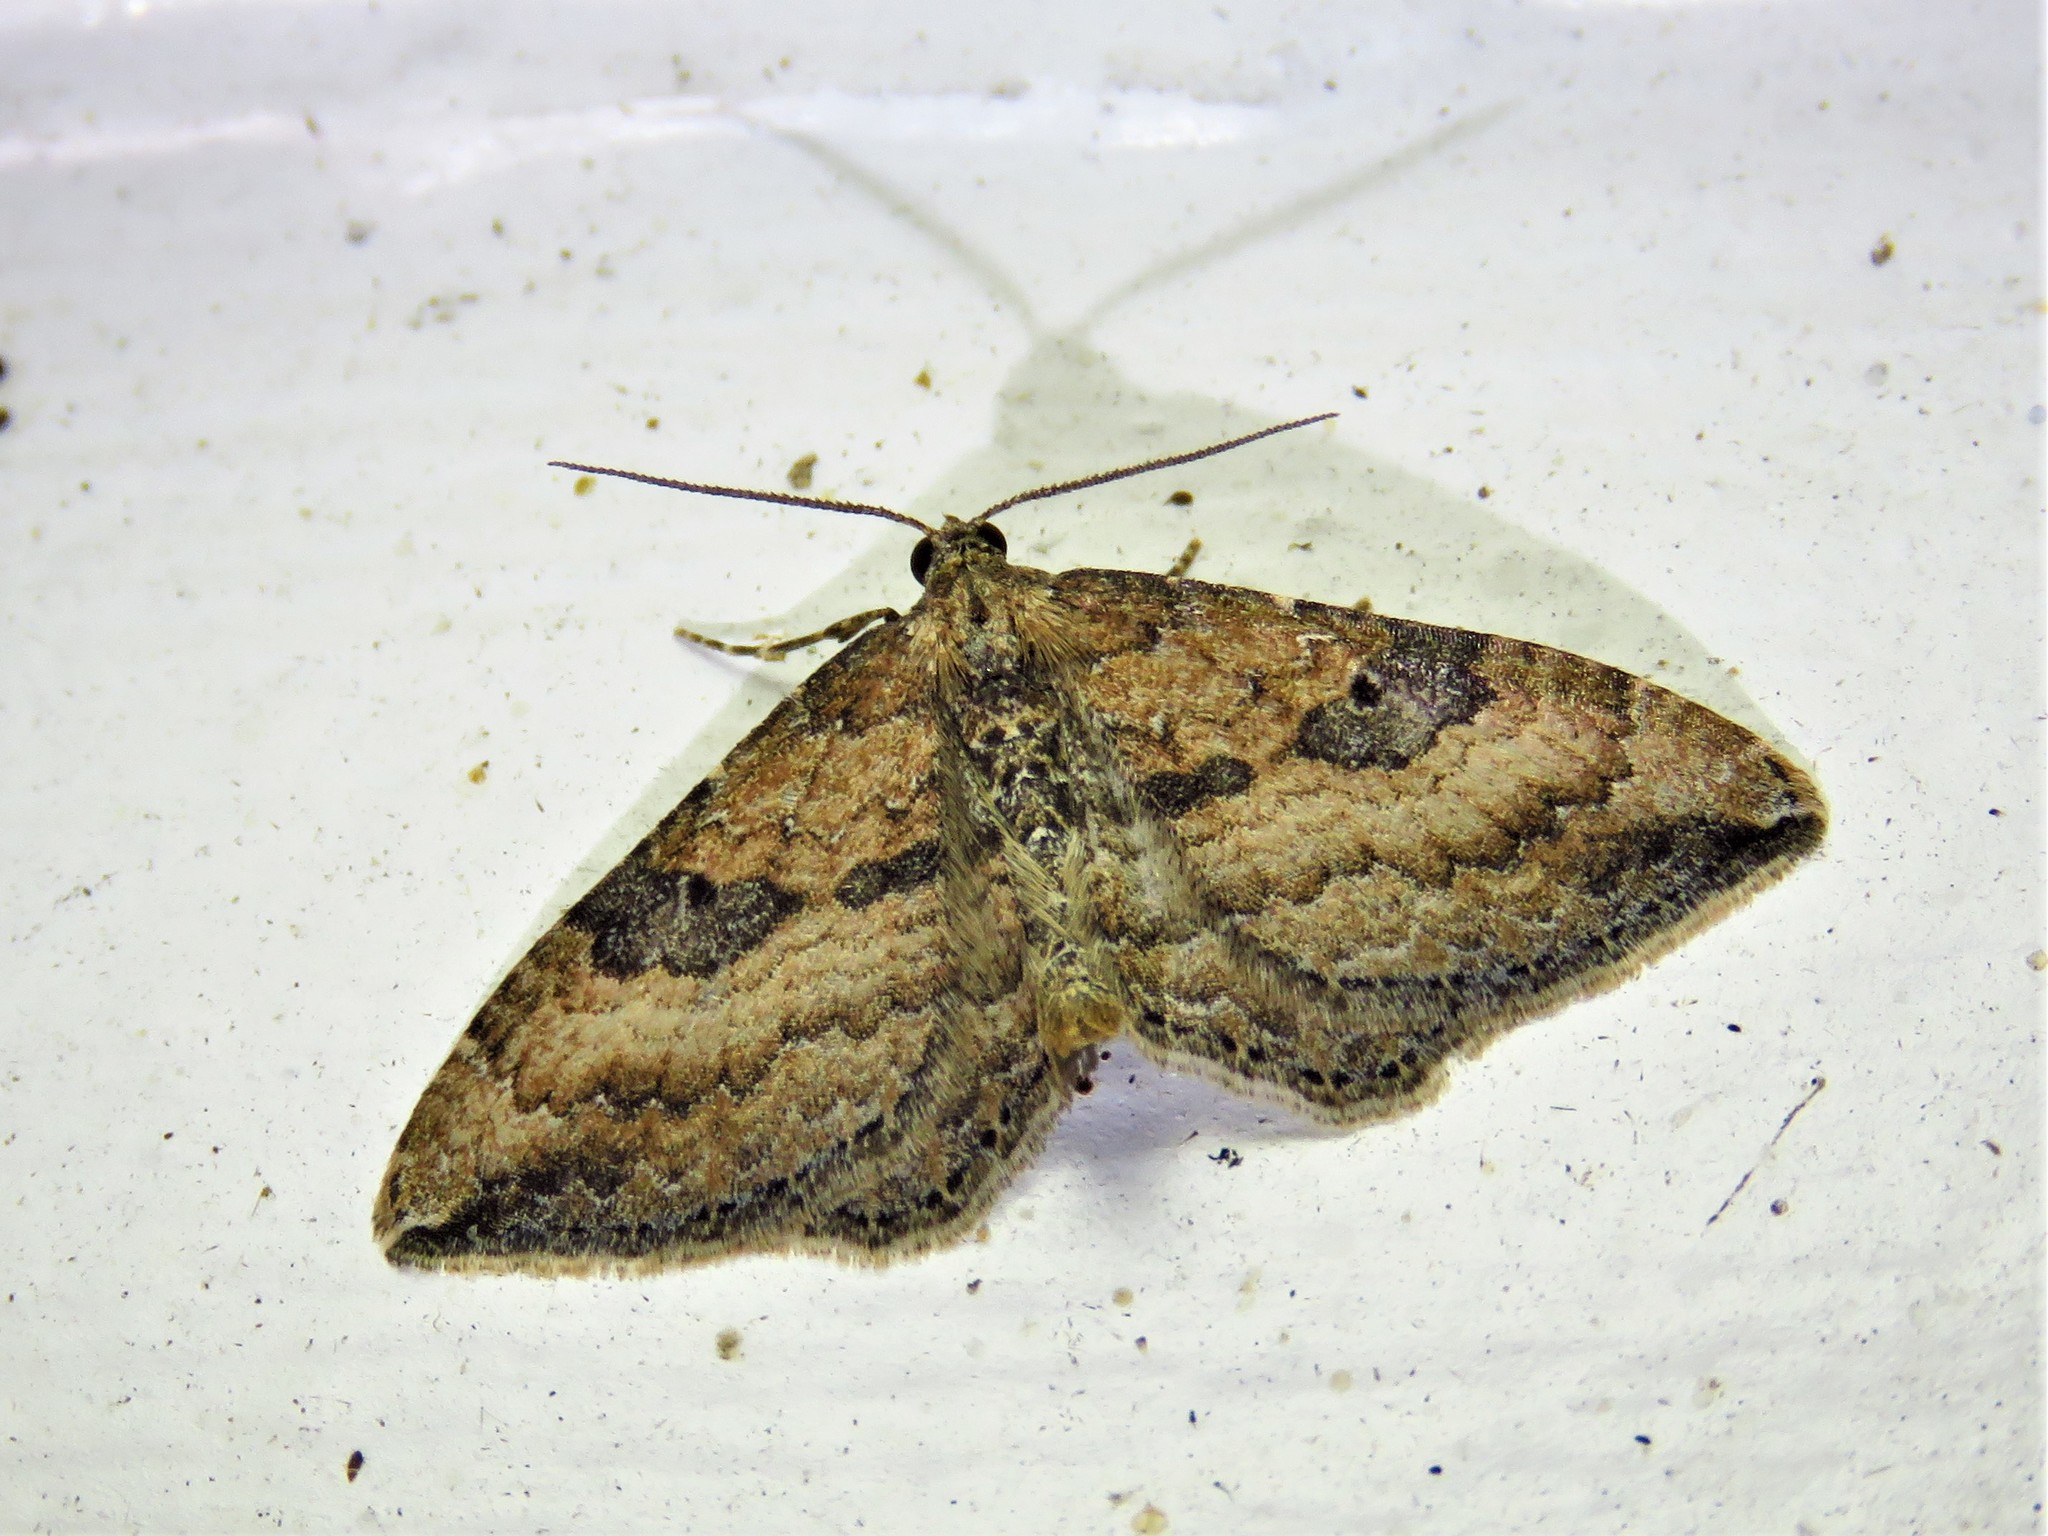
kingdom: Animalia
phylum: Arthropoda
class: Insecta
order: Lepidoptera
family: Geometridae
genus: Orthonama
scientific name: Orthonama obstipata
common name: The gem
